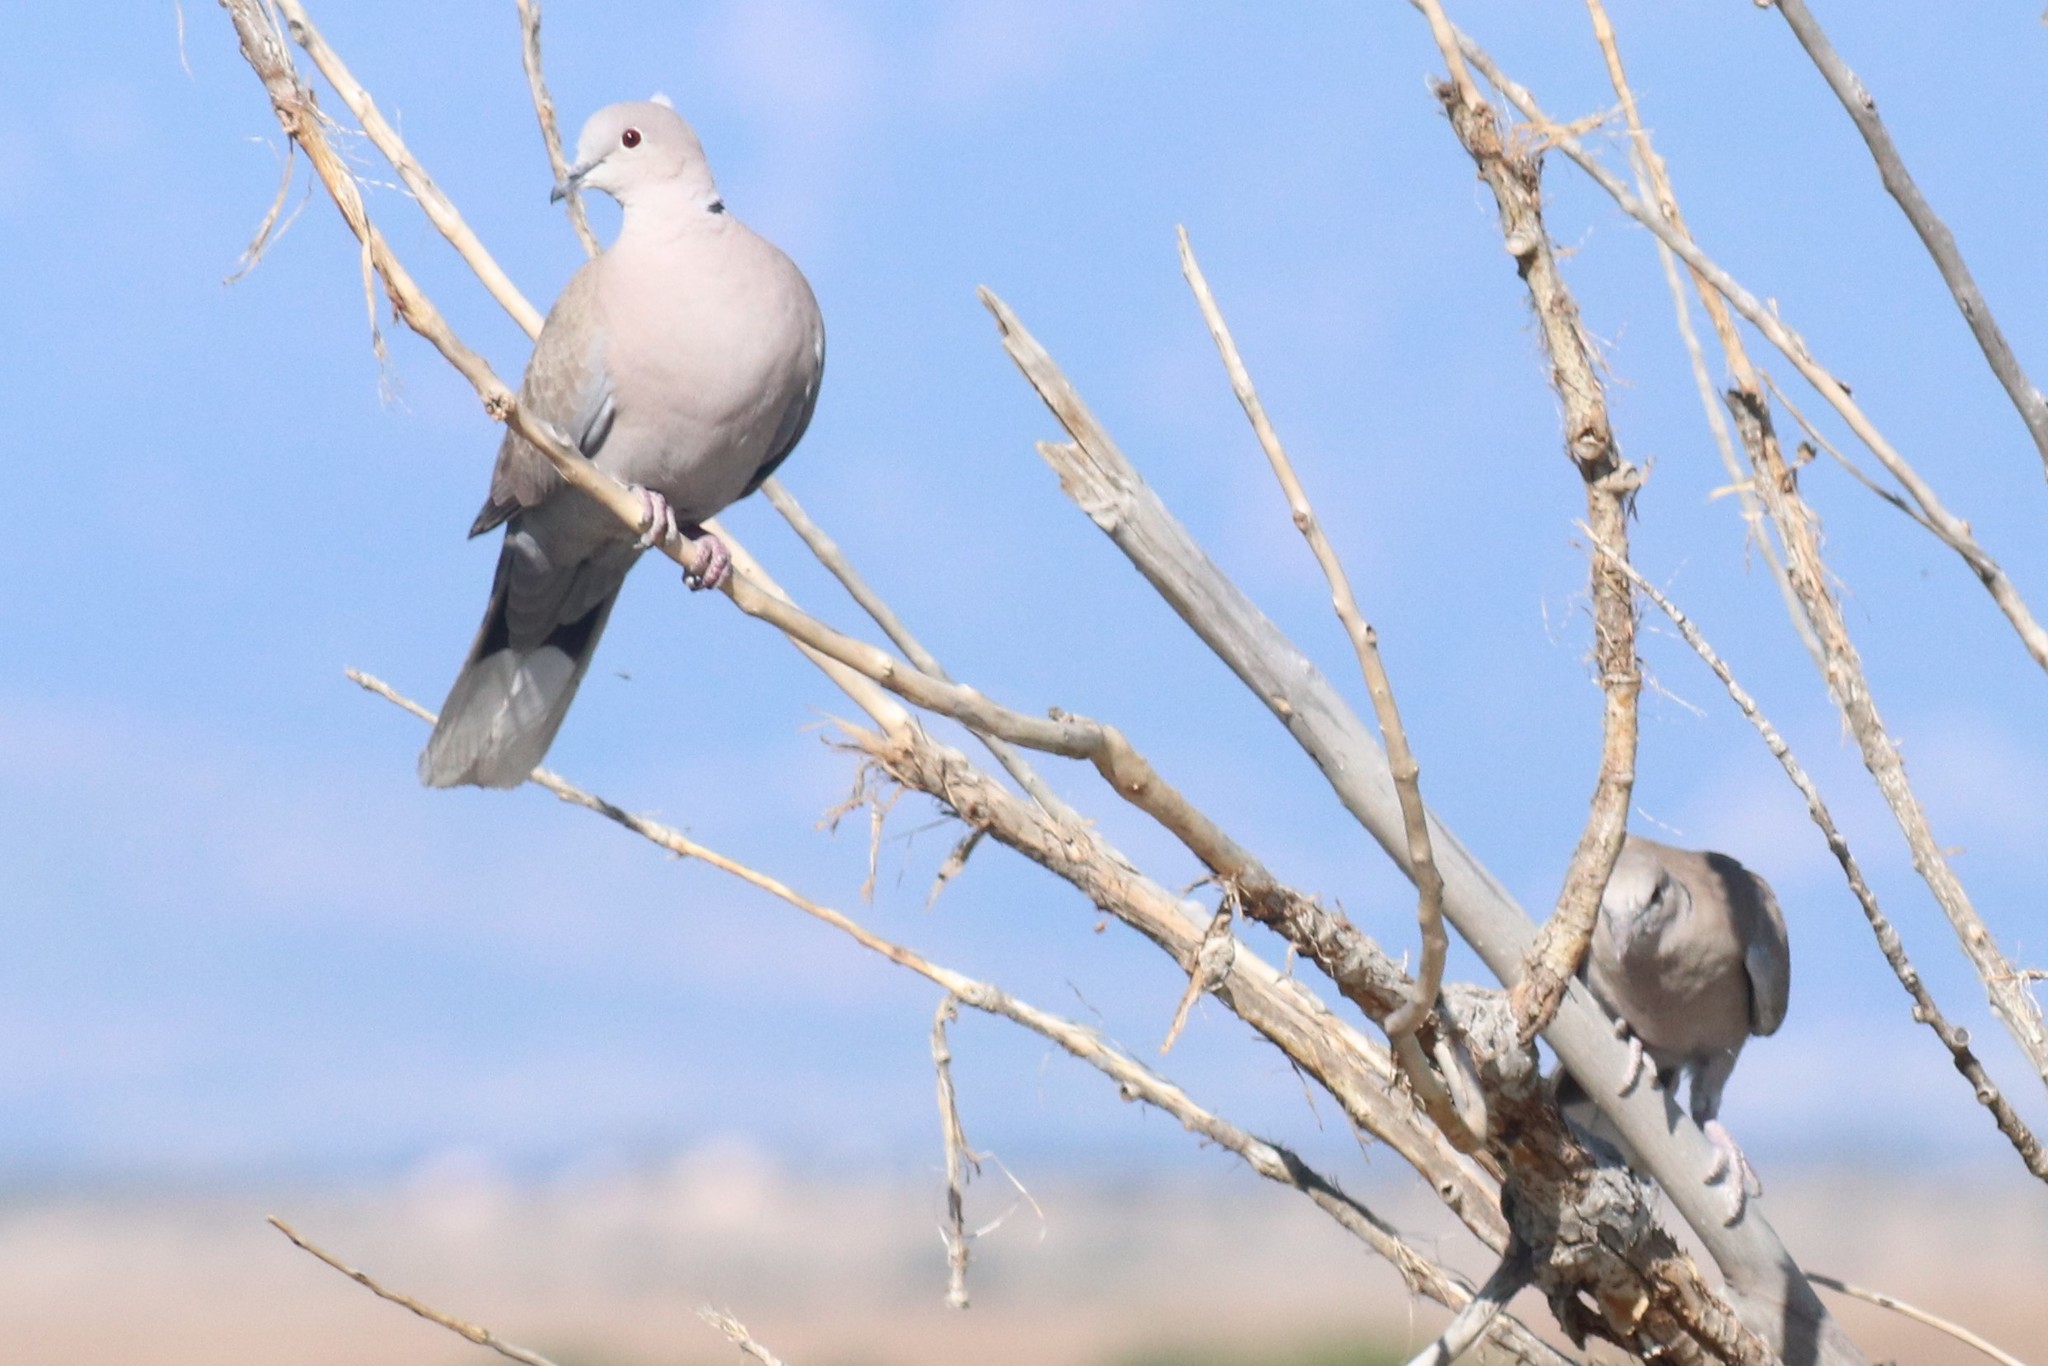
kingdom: Animalia
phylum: Chordata
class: Aves
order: Columbiformes
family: Columbidae
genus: Streptopelia
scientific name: Streptopelia decaocto
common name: Eurasian collared dove
